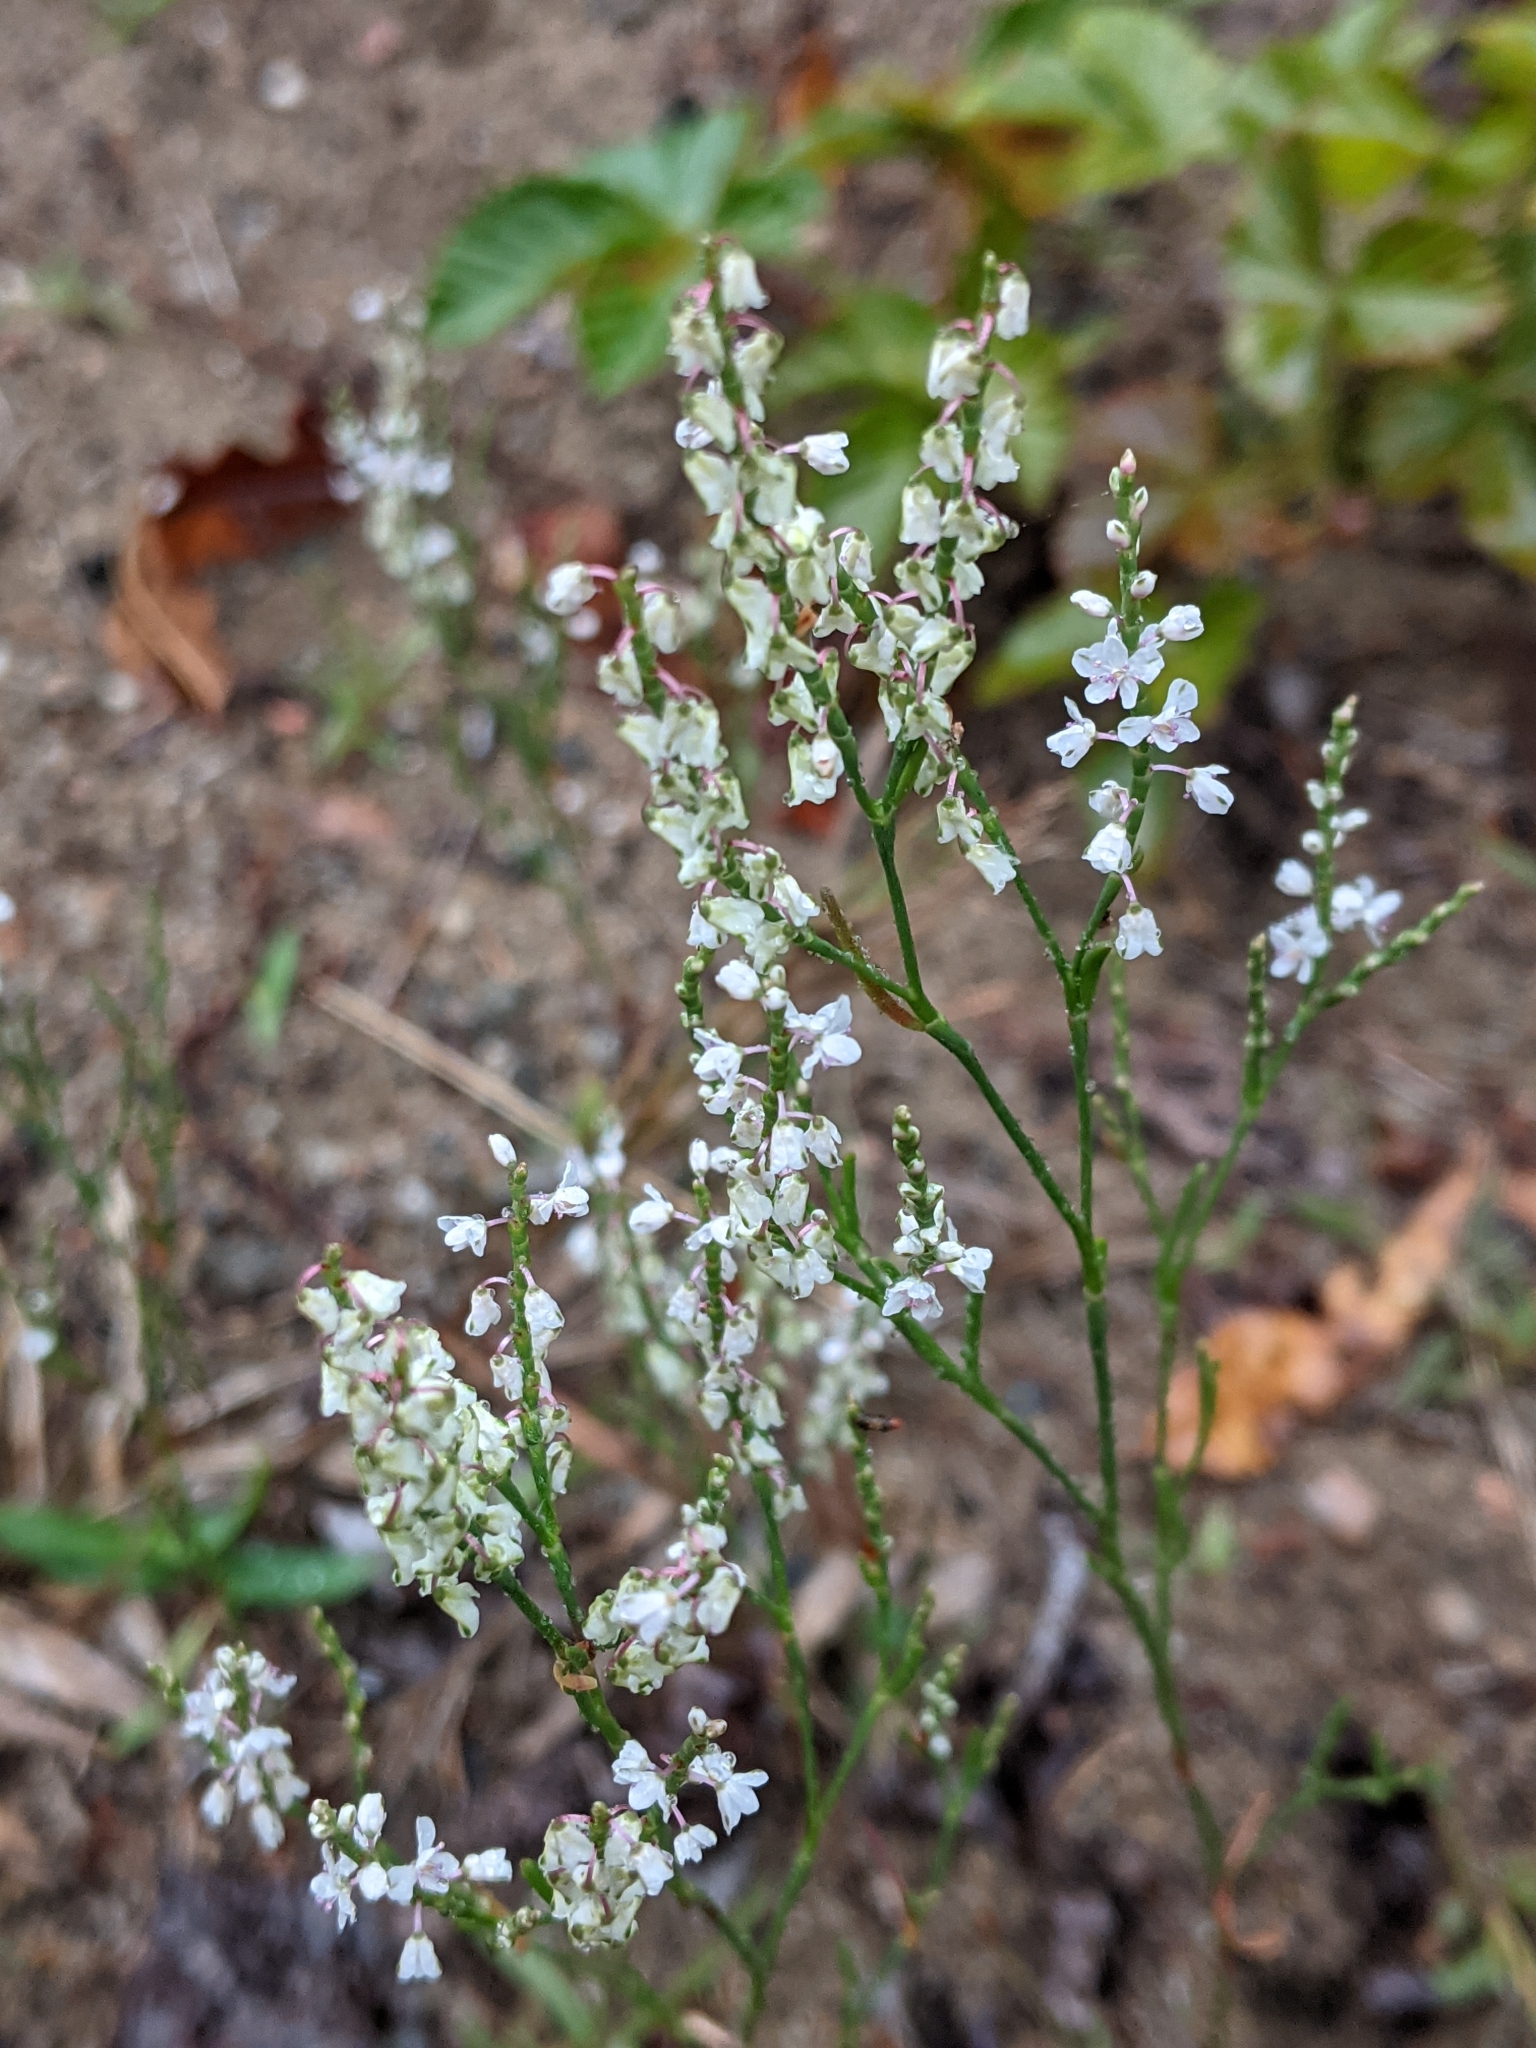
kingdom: Plantae
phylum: Tracheophyta
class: Magnoliopsida
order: Caryophyllales
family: Polygonaceae
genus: Polygonella
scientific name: Polygonella articulata
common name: Coastal jointweed
